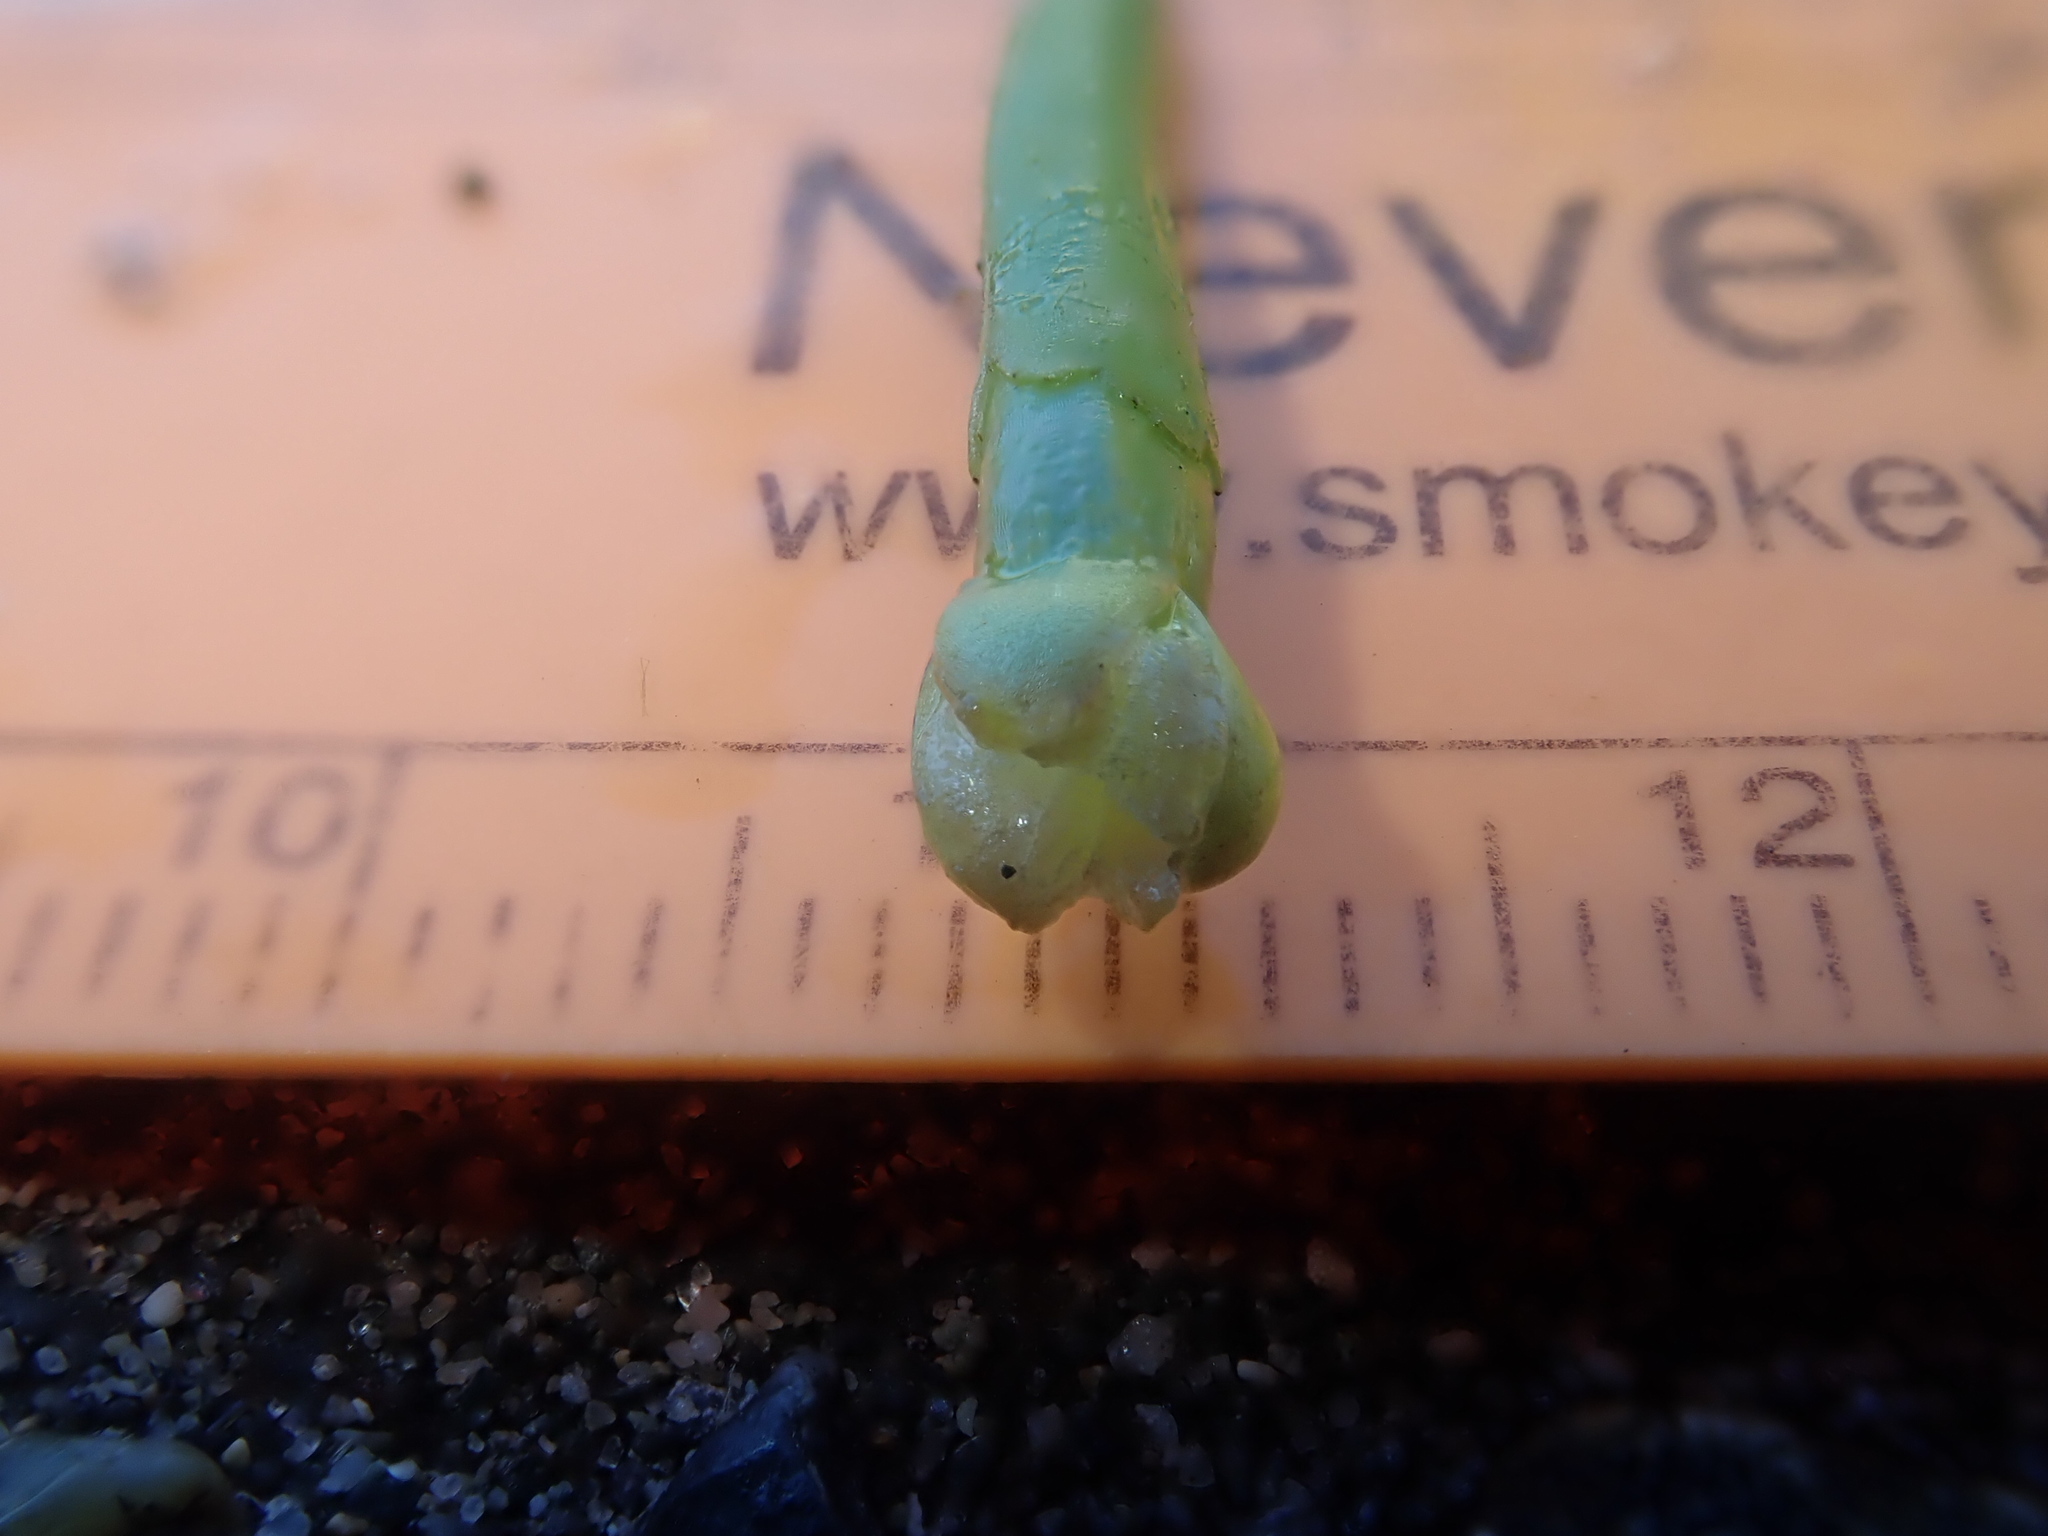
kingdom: Plantae
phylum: Tracheophyta
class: Liliopsida
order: Alismatales
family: Hydrocharitaceae
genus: Vallisneria
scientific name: Vallisneria americana
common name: American eelgrass
